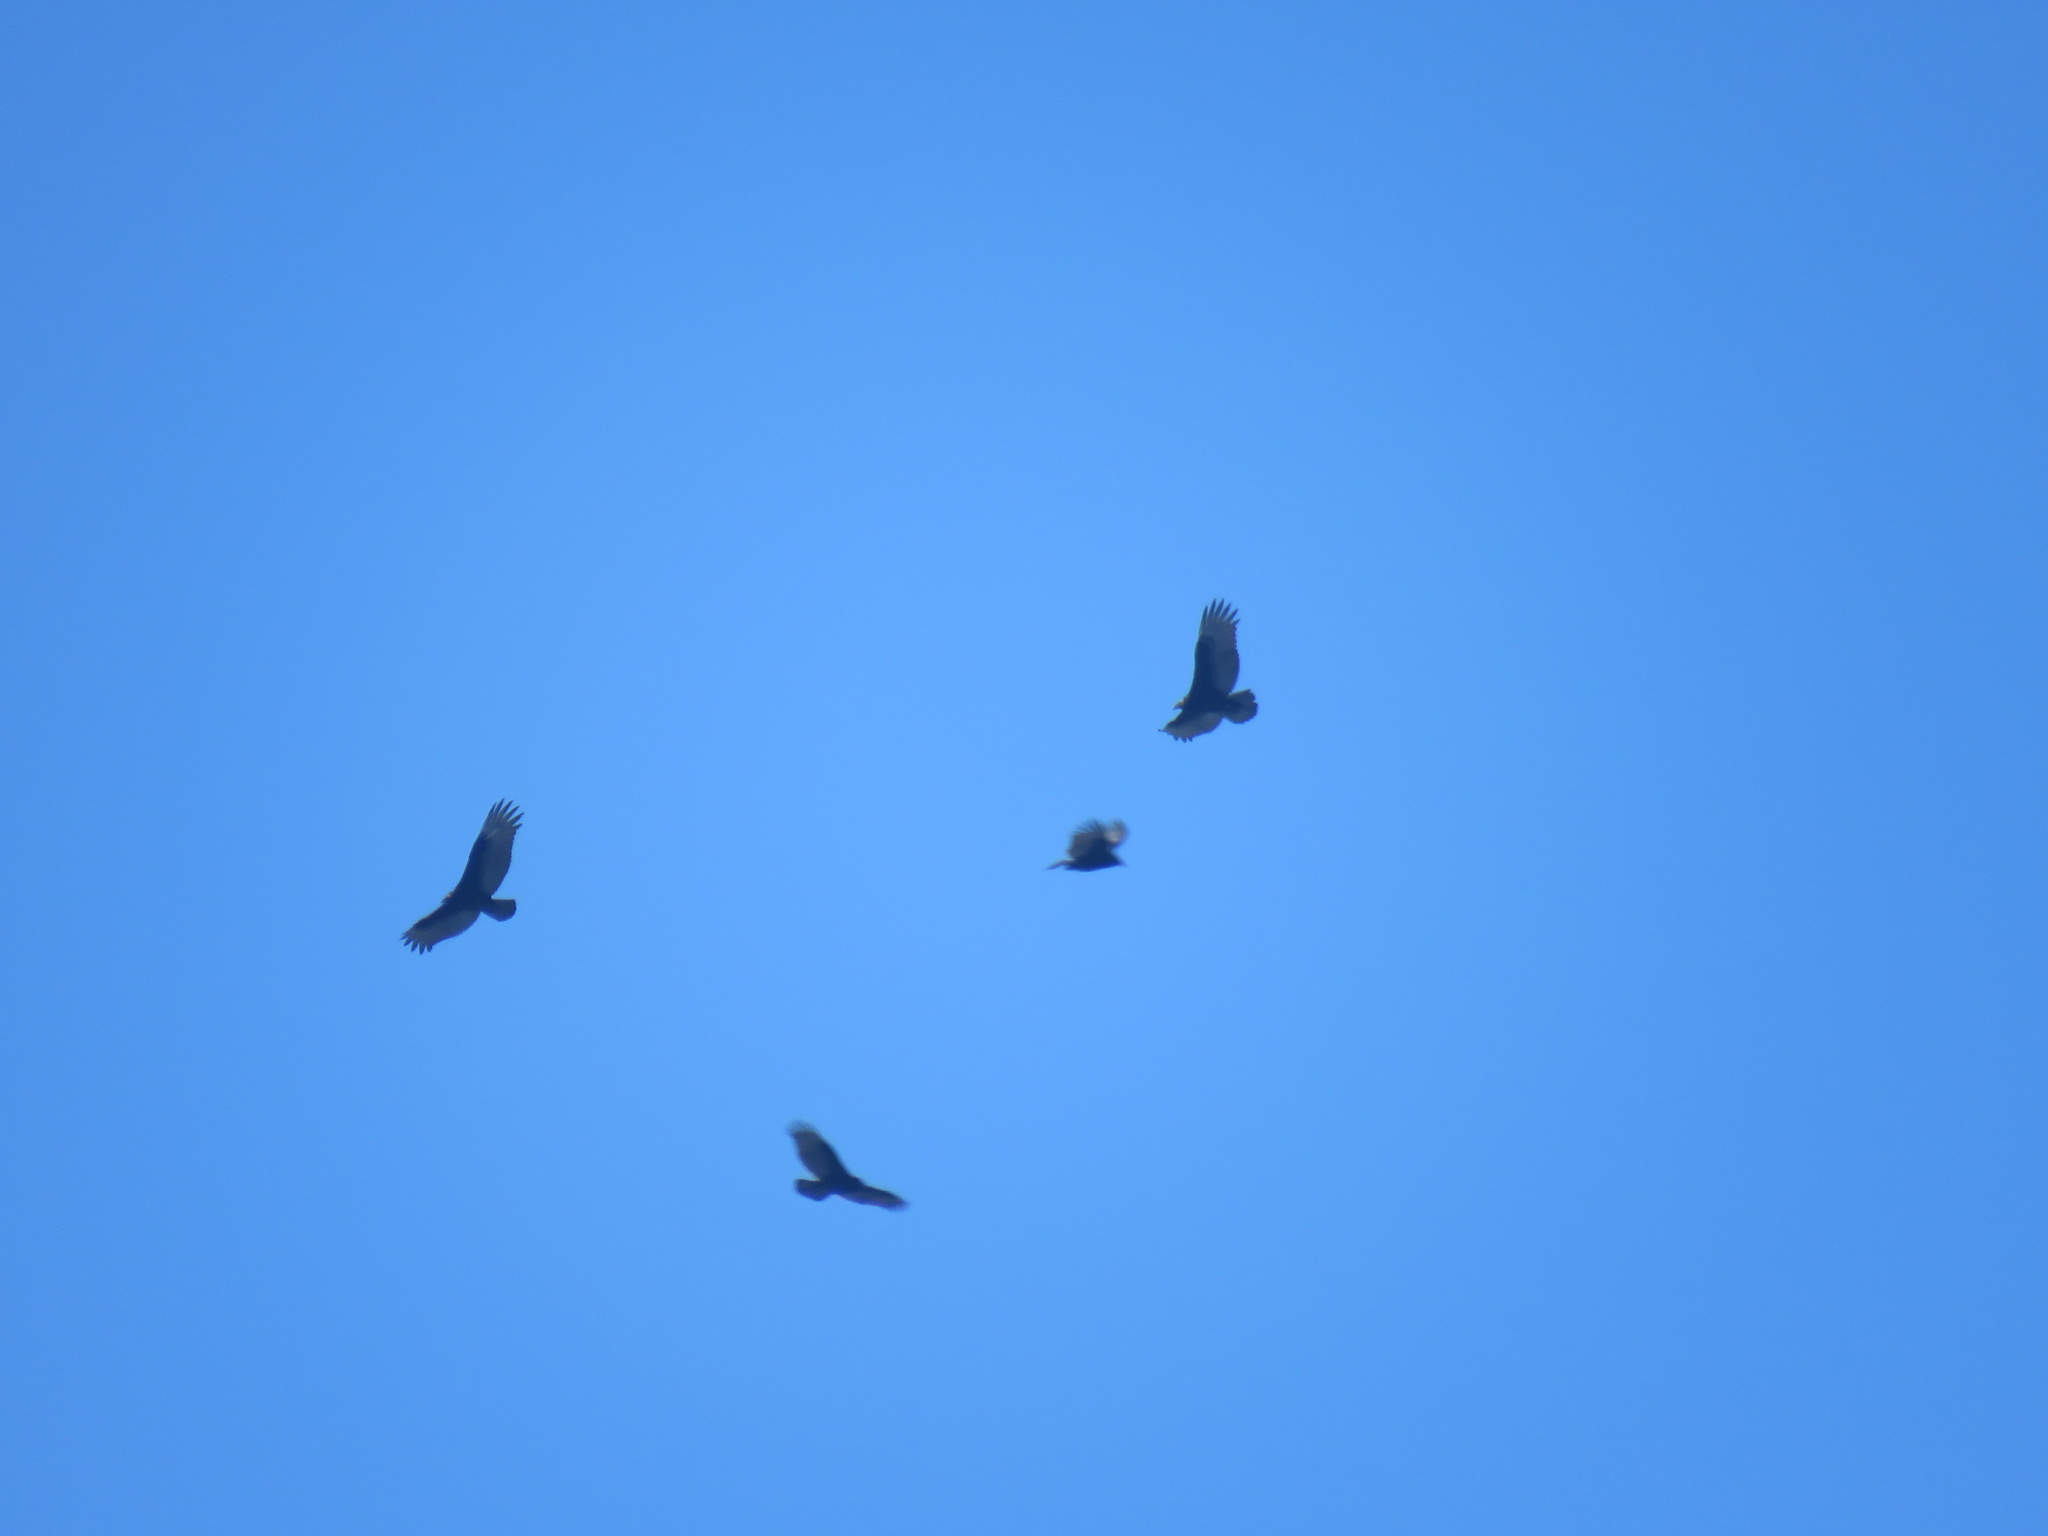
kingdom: Animalia
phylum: Chordata
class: Aves
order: Accipitriformes
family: Cathartidae
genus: Cathartes
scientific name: Cathartes aura
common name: Turkey vulture
